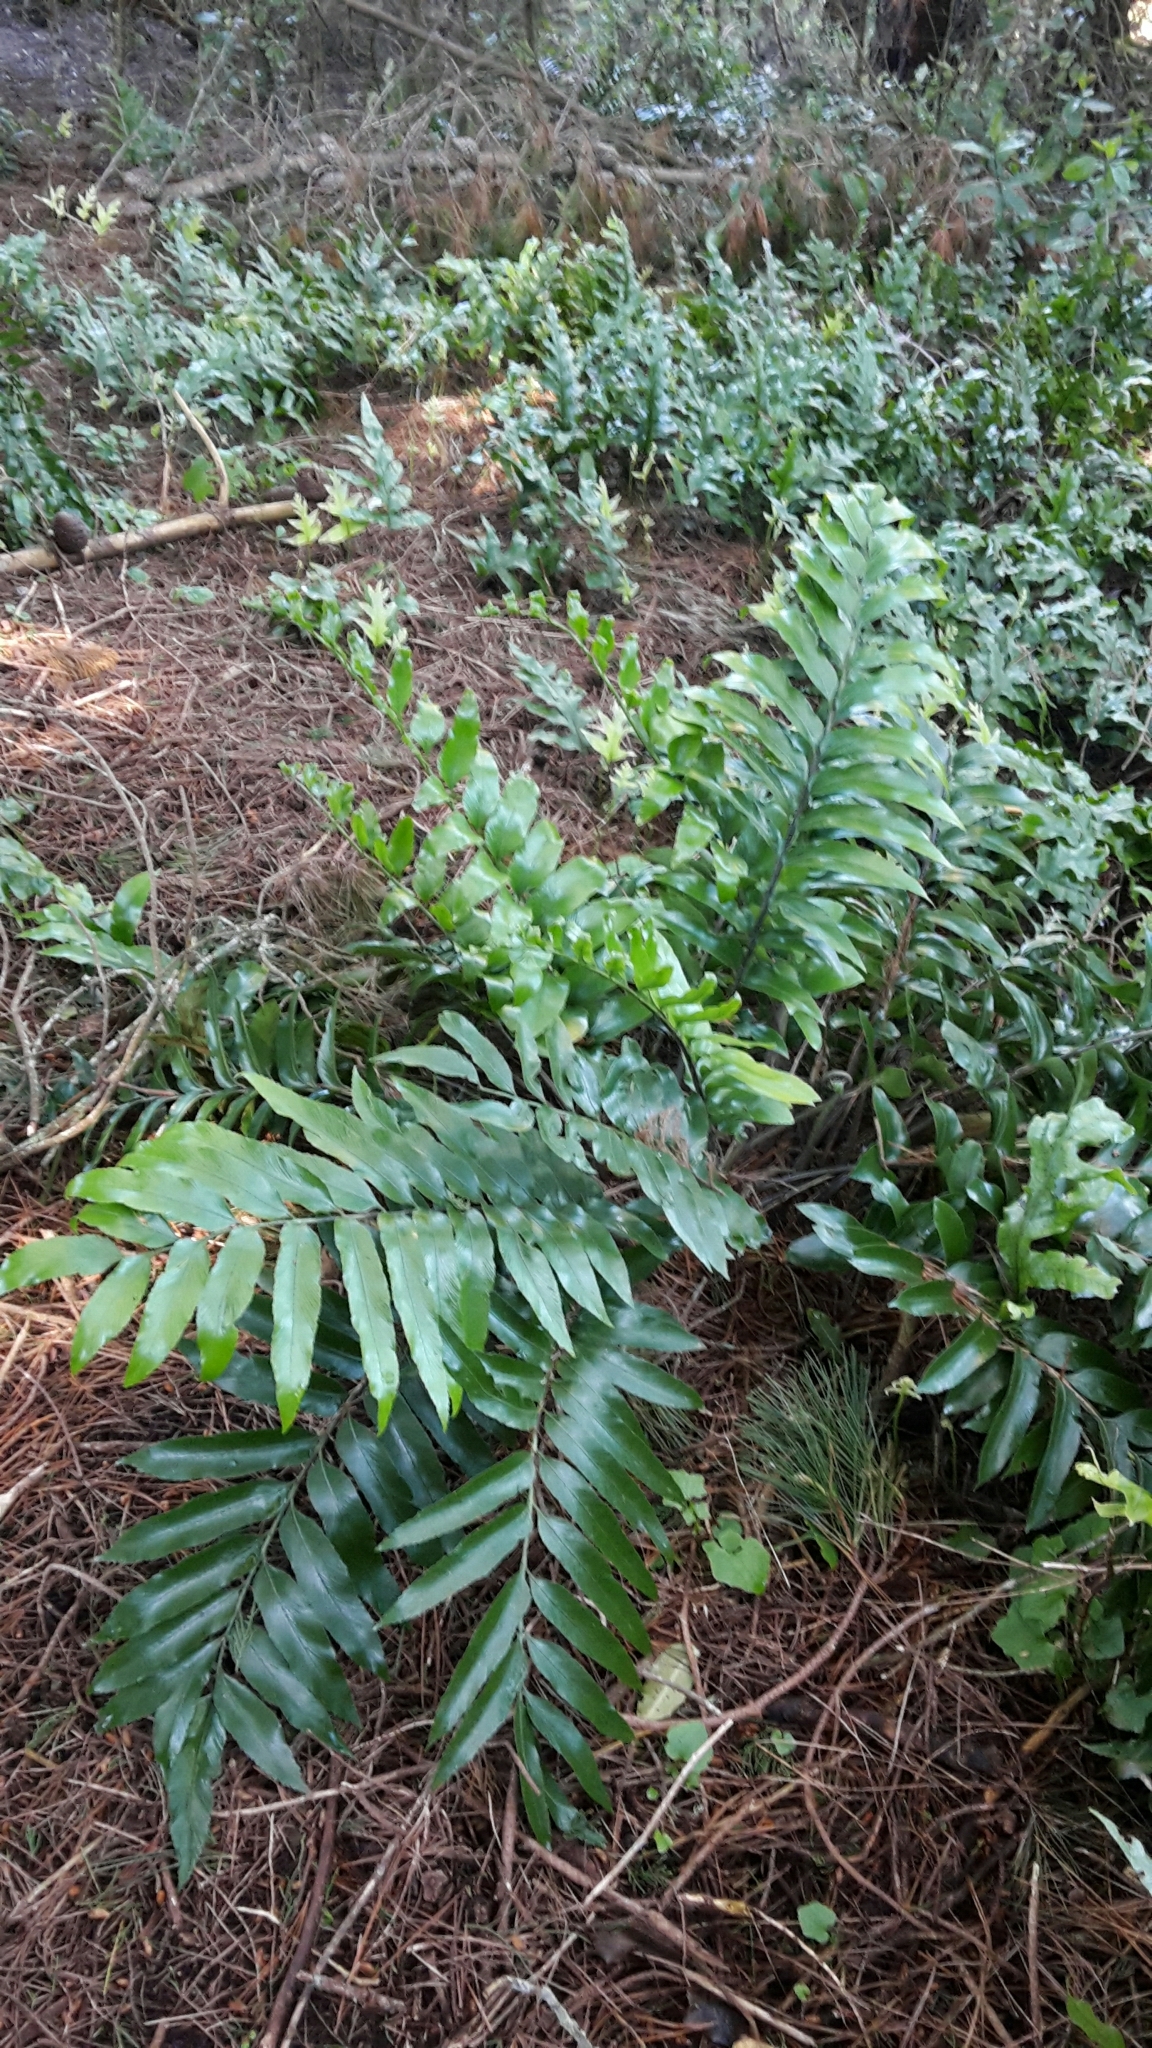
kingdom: Plantae
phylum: Tracheophyta
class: Polypodiopsida
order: Polypodiales
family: Aspleniaceae
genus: Asplenium
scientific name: Asplenium oblongifolium
